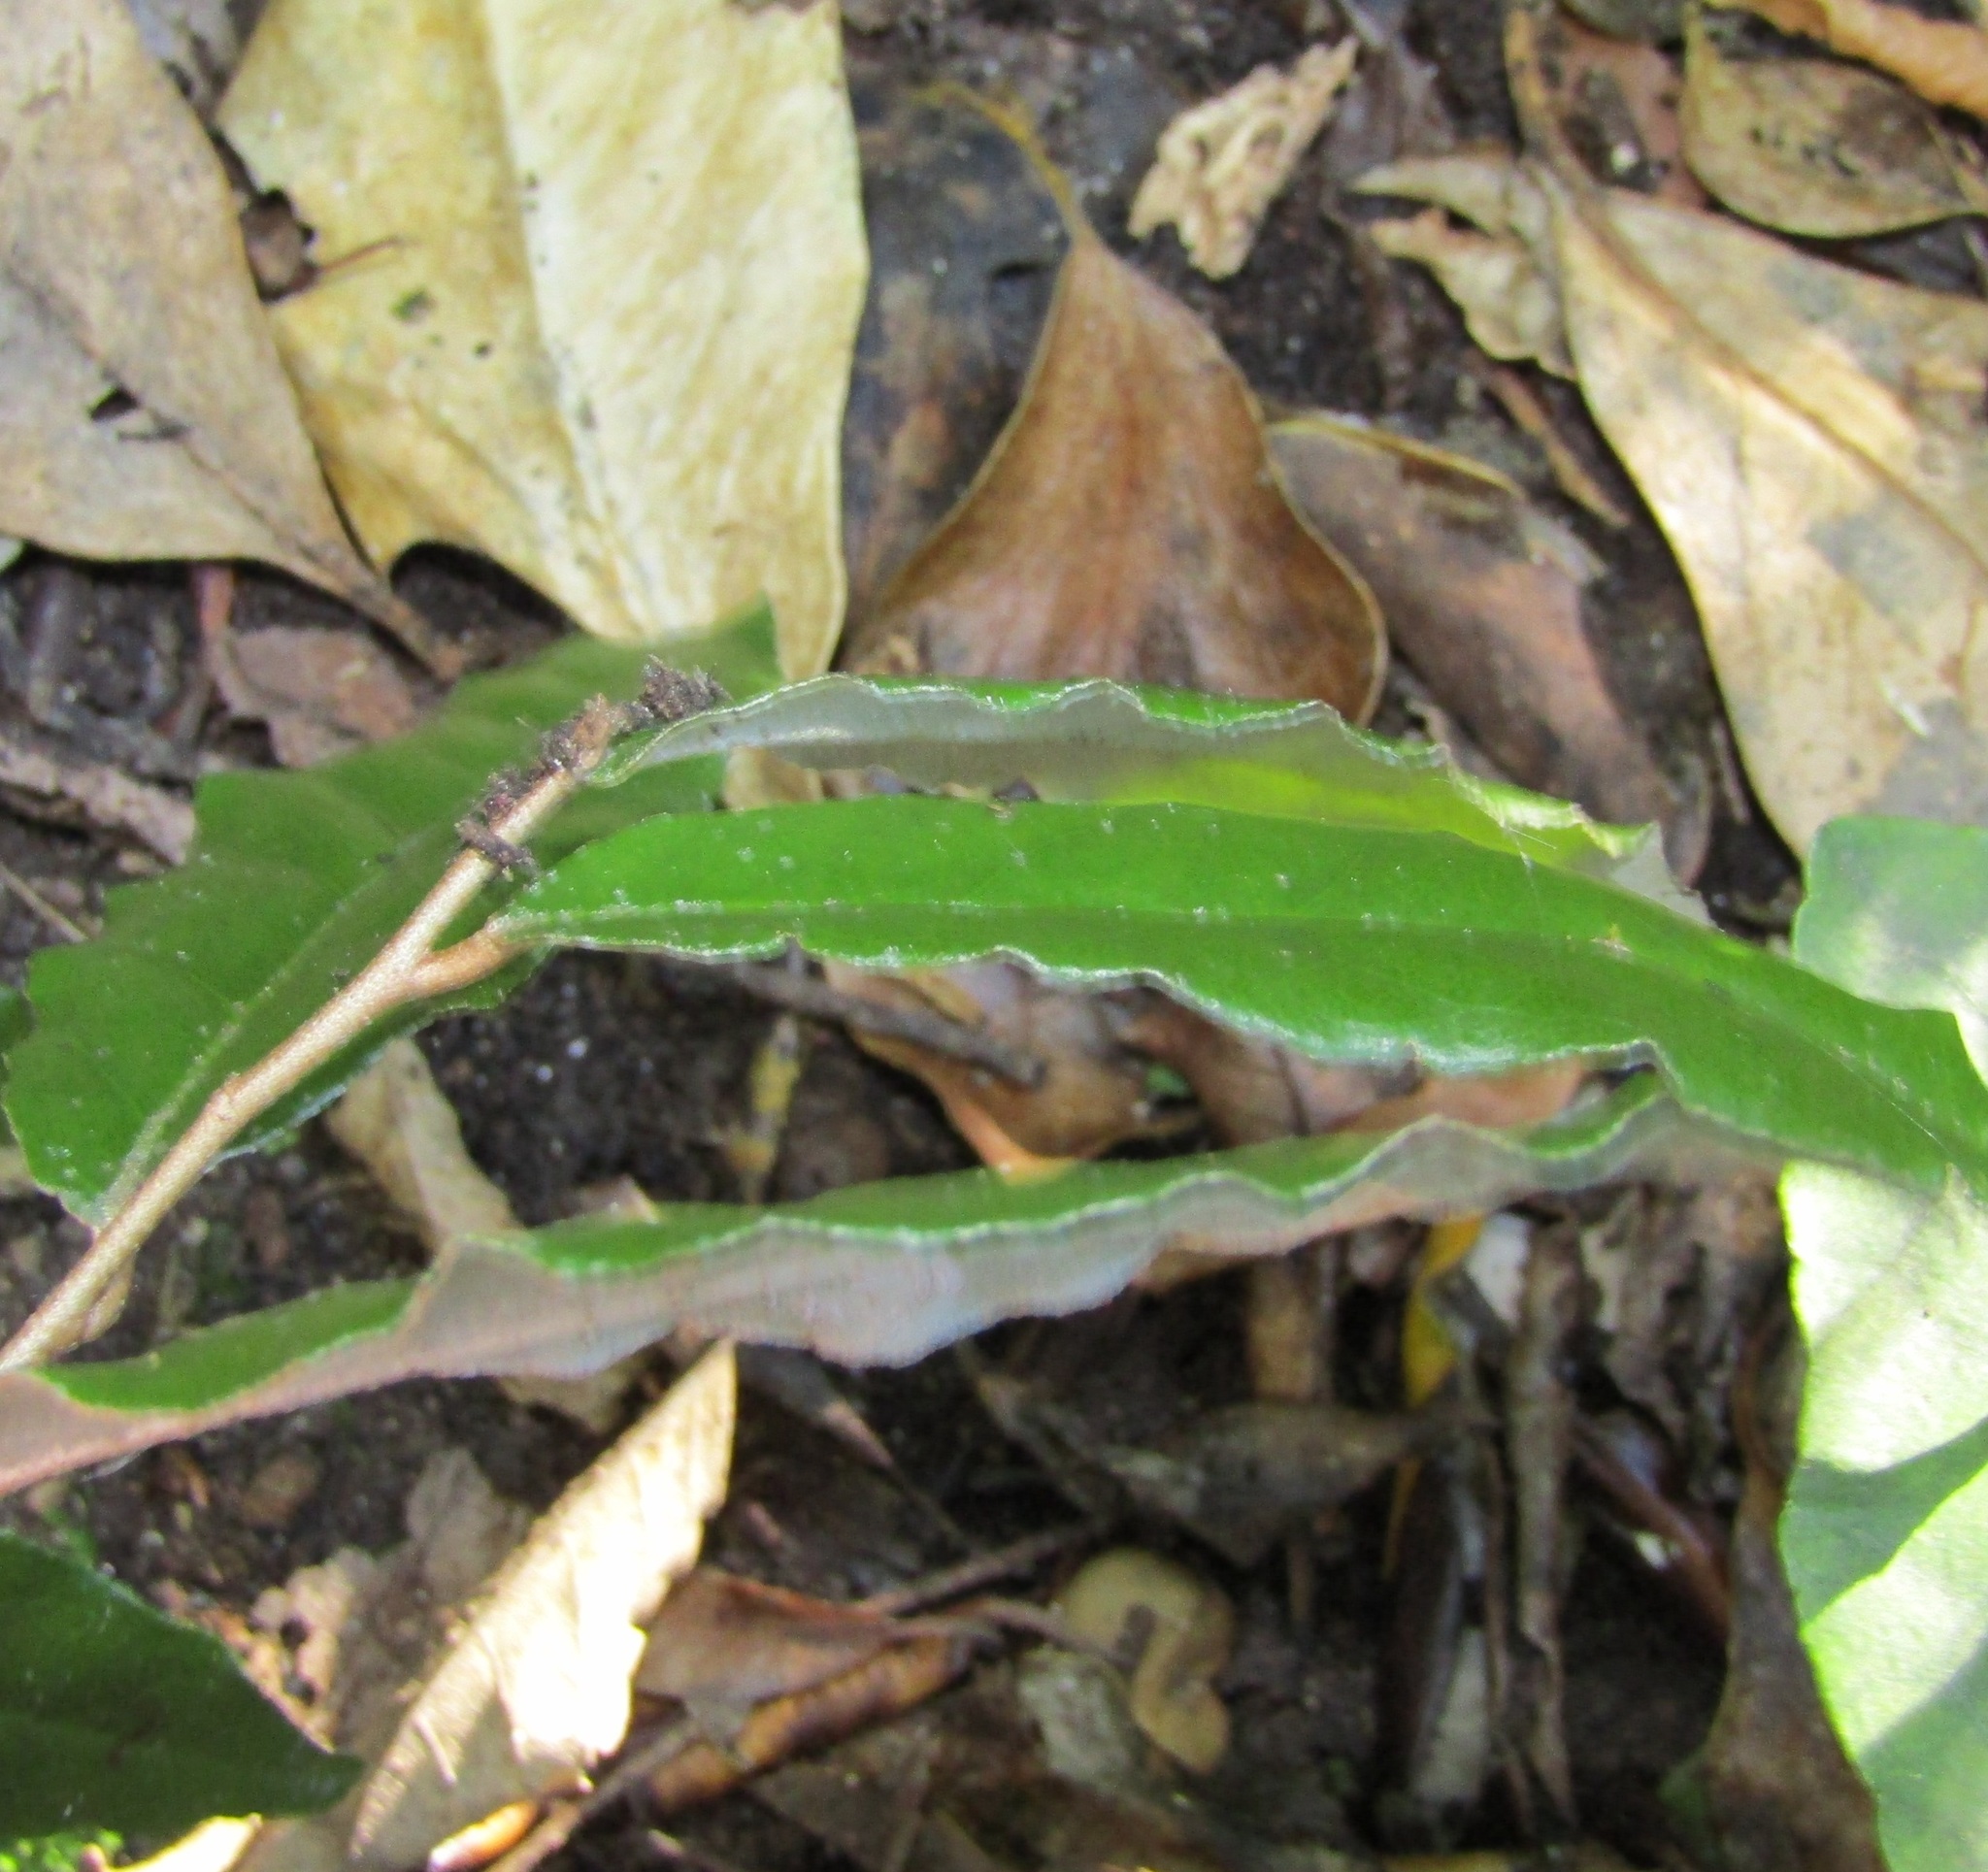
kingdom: Plantae
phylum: Tracheophyta
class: Magnoliopsida
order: Rosales
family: Elaeagnaceae
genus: Elaeagnus
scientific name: Elaeagnus pungens
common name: Spiny oleaster
